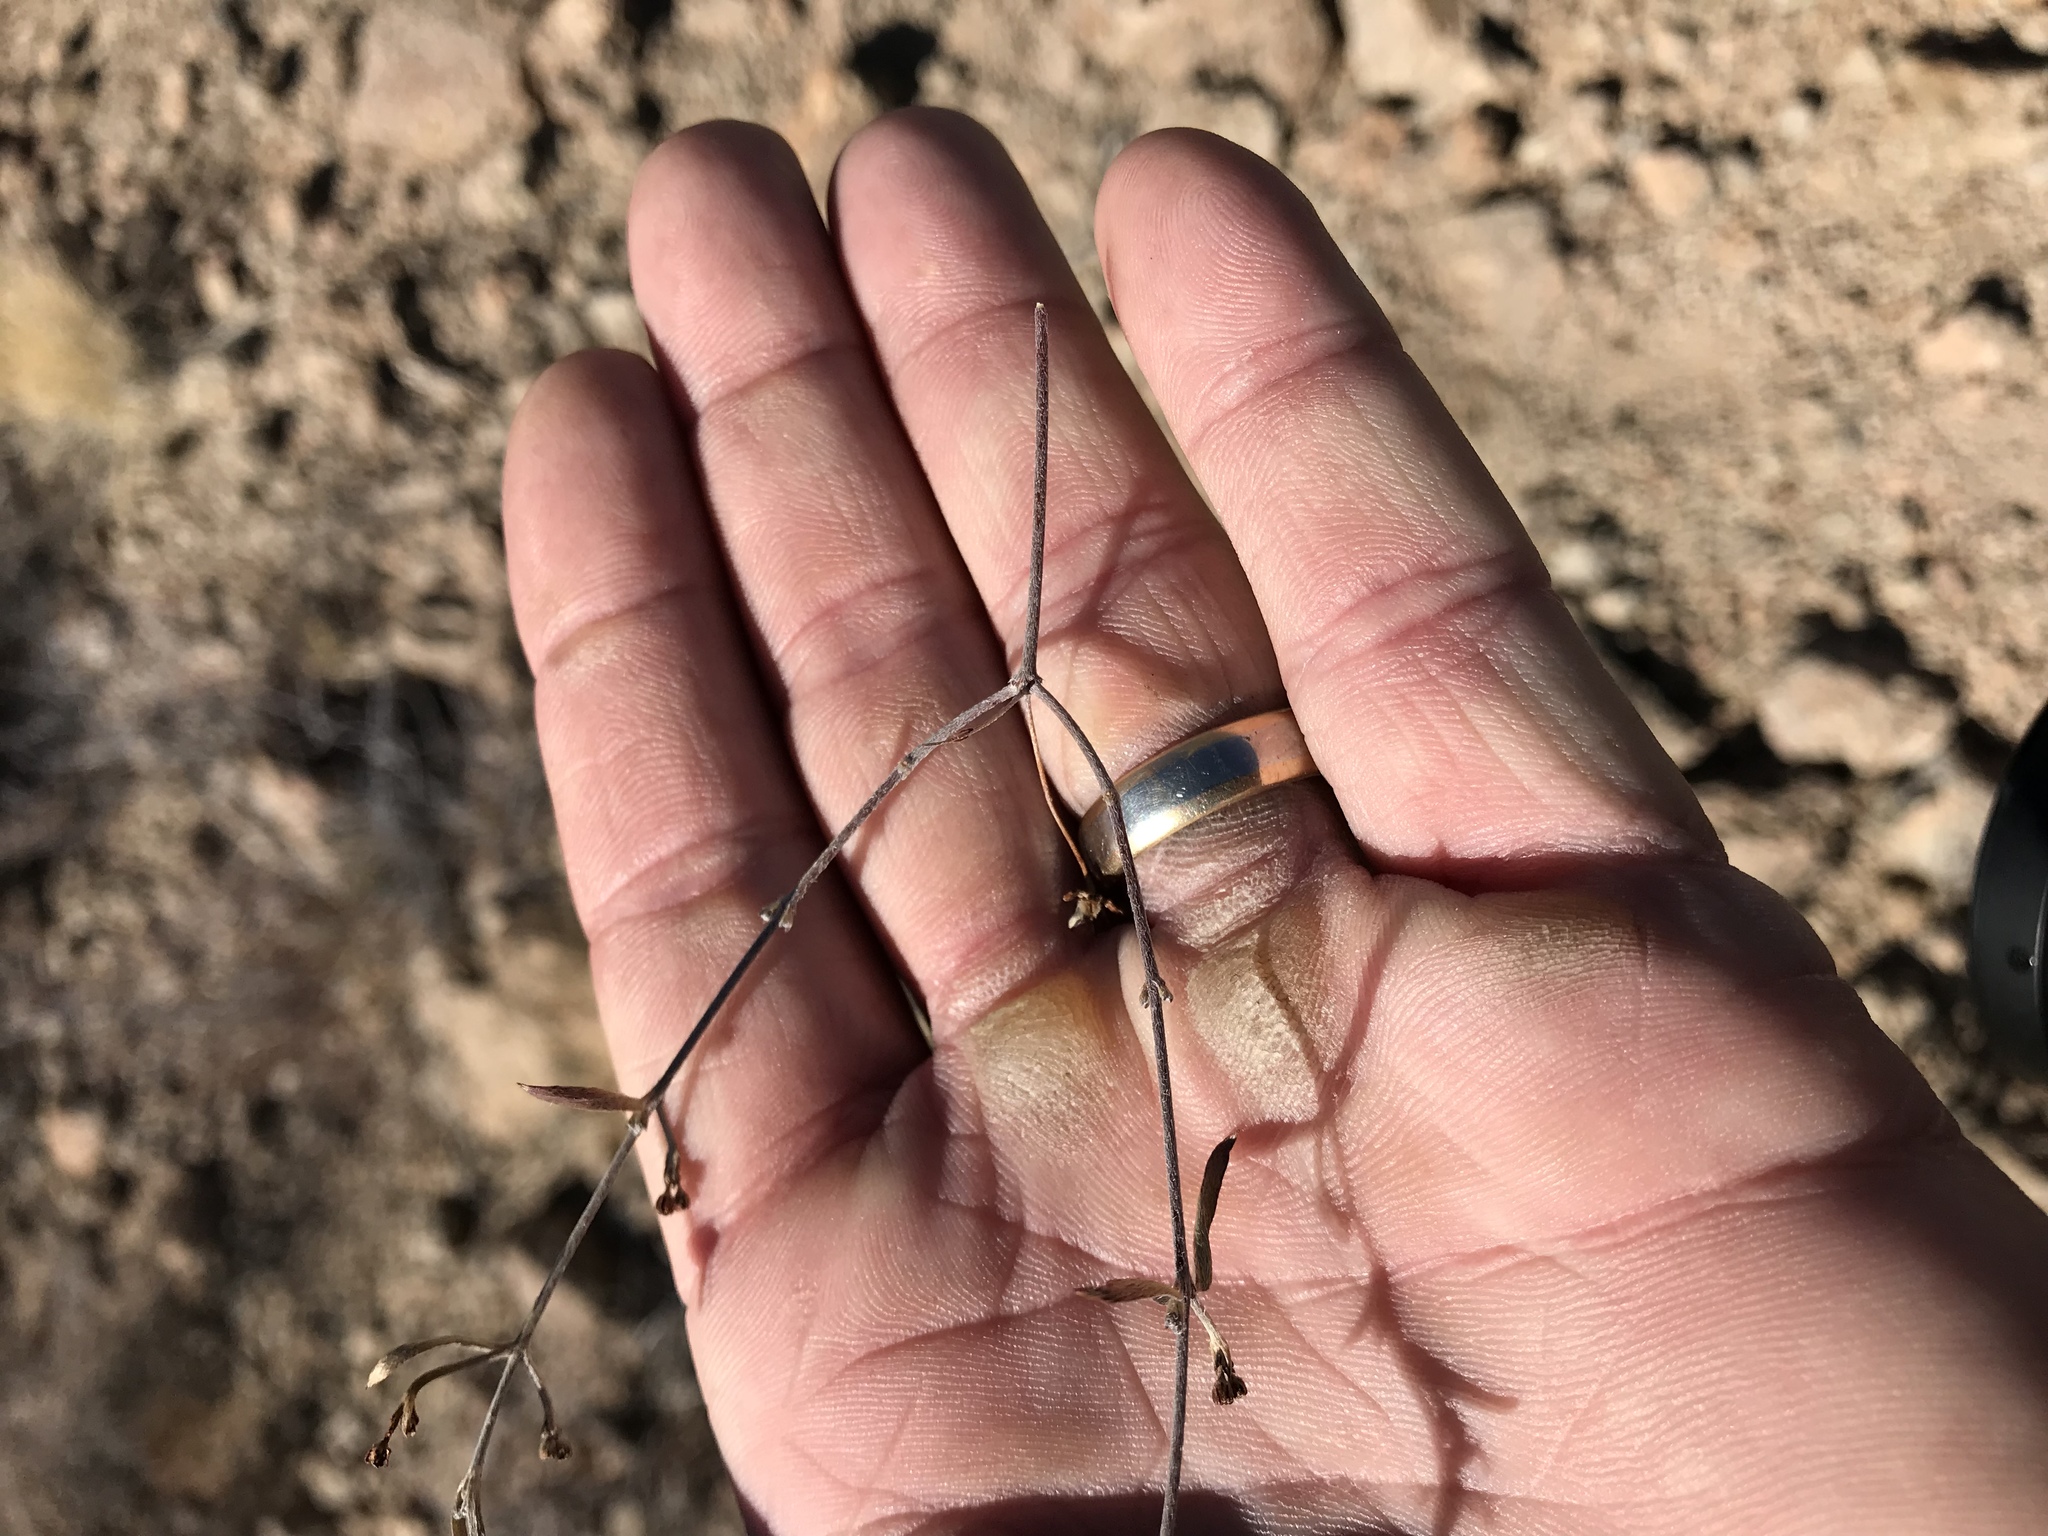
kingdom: Plantae
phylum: Tracheophyta
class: Magnoliopsida
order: Malpighiales
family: Malpighiaceae
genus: Cottsia
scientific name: Cottsia gracilis
